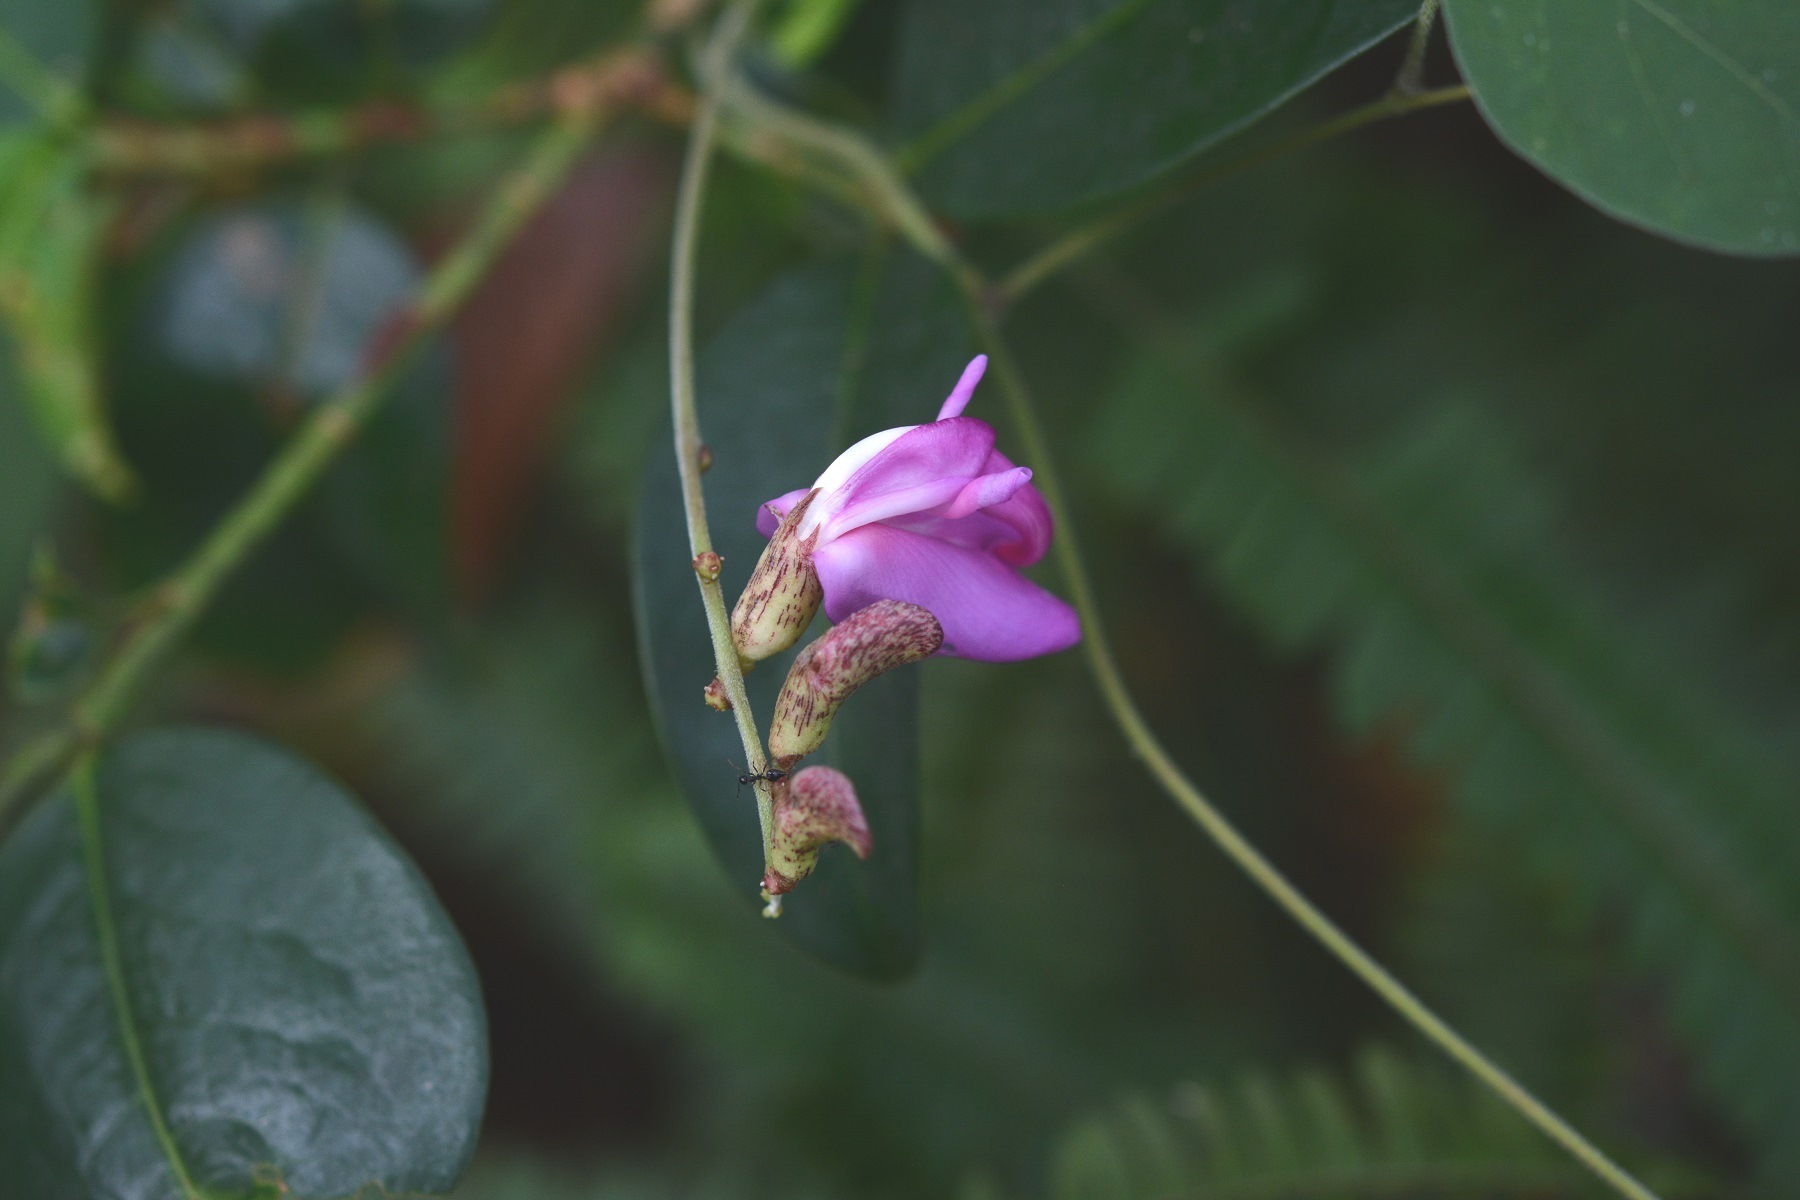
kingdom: Plantae
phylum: Tracheophyta
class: Magnoliopsida
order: Fabales
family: Fabaceae
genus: Canavalia
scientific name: Canavalia oxyphylla
